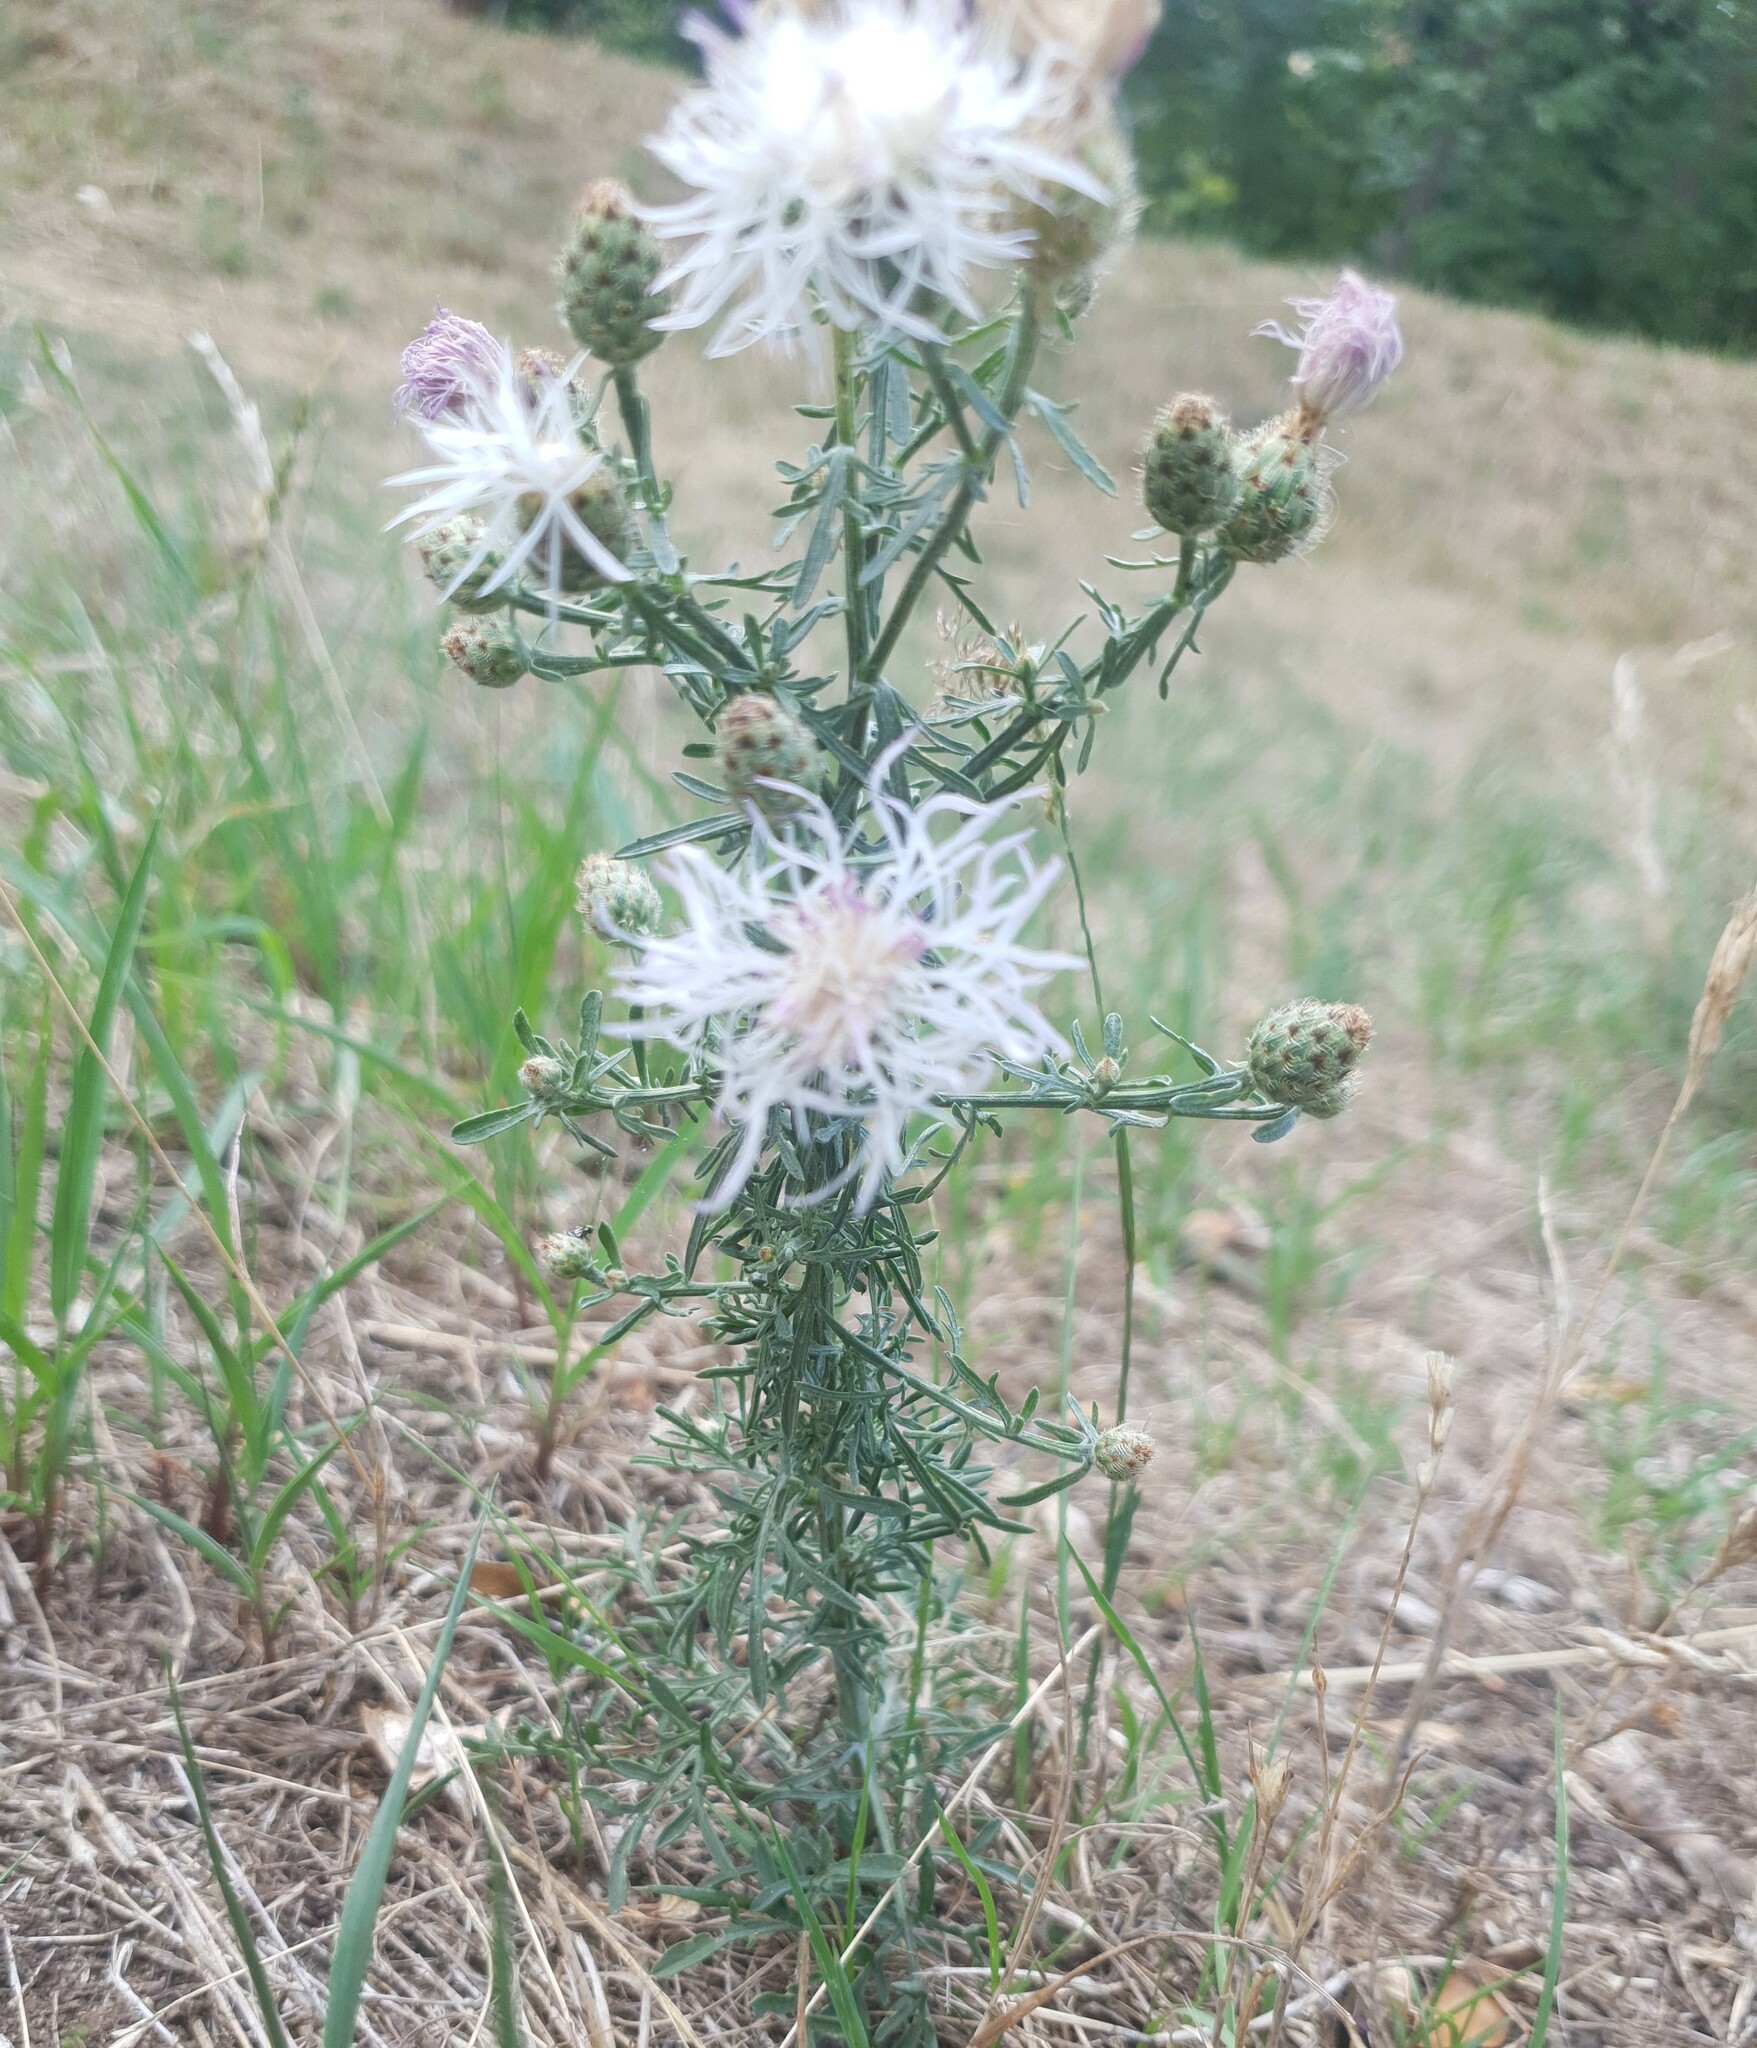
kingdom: Plantae
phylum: Tracheophyta
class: Magnoliopsida
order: Asterales
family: Asteraceae
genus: Centaurea
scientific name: Centaurea stoebe
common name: Spotted knapweed
